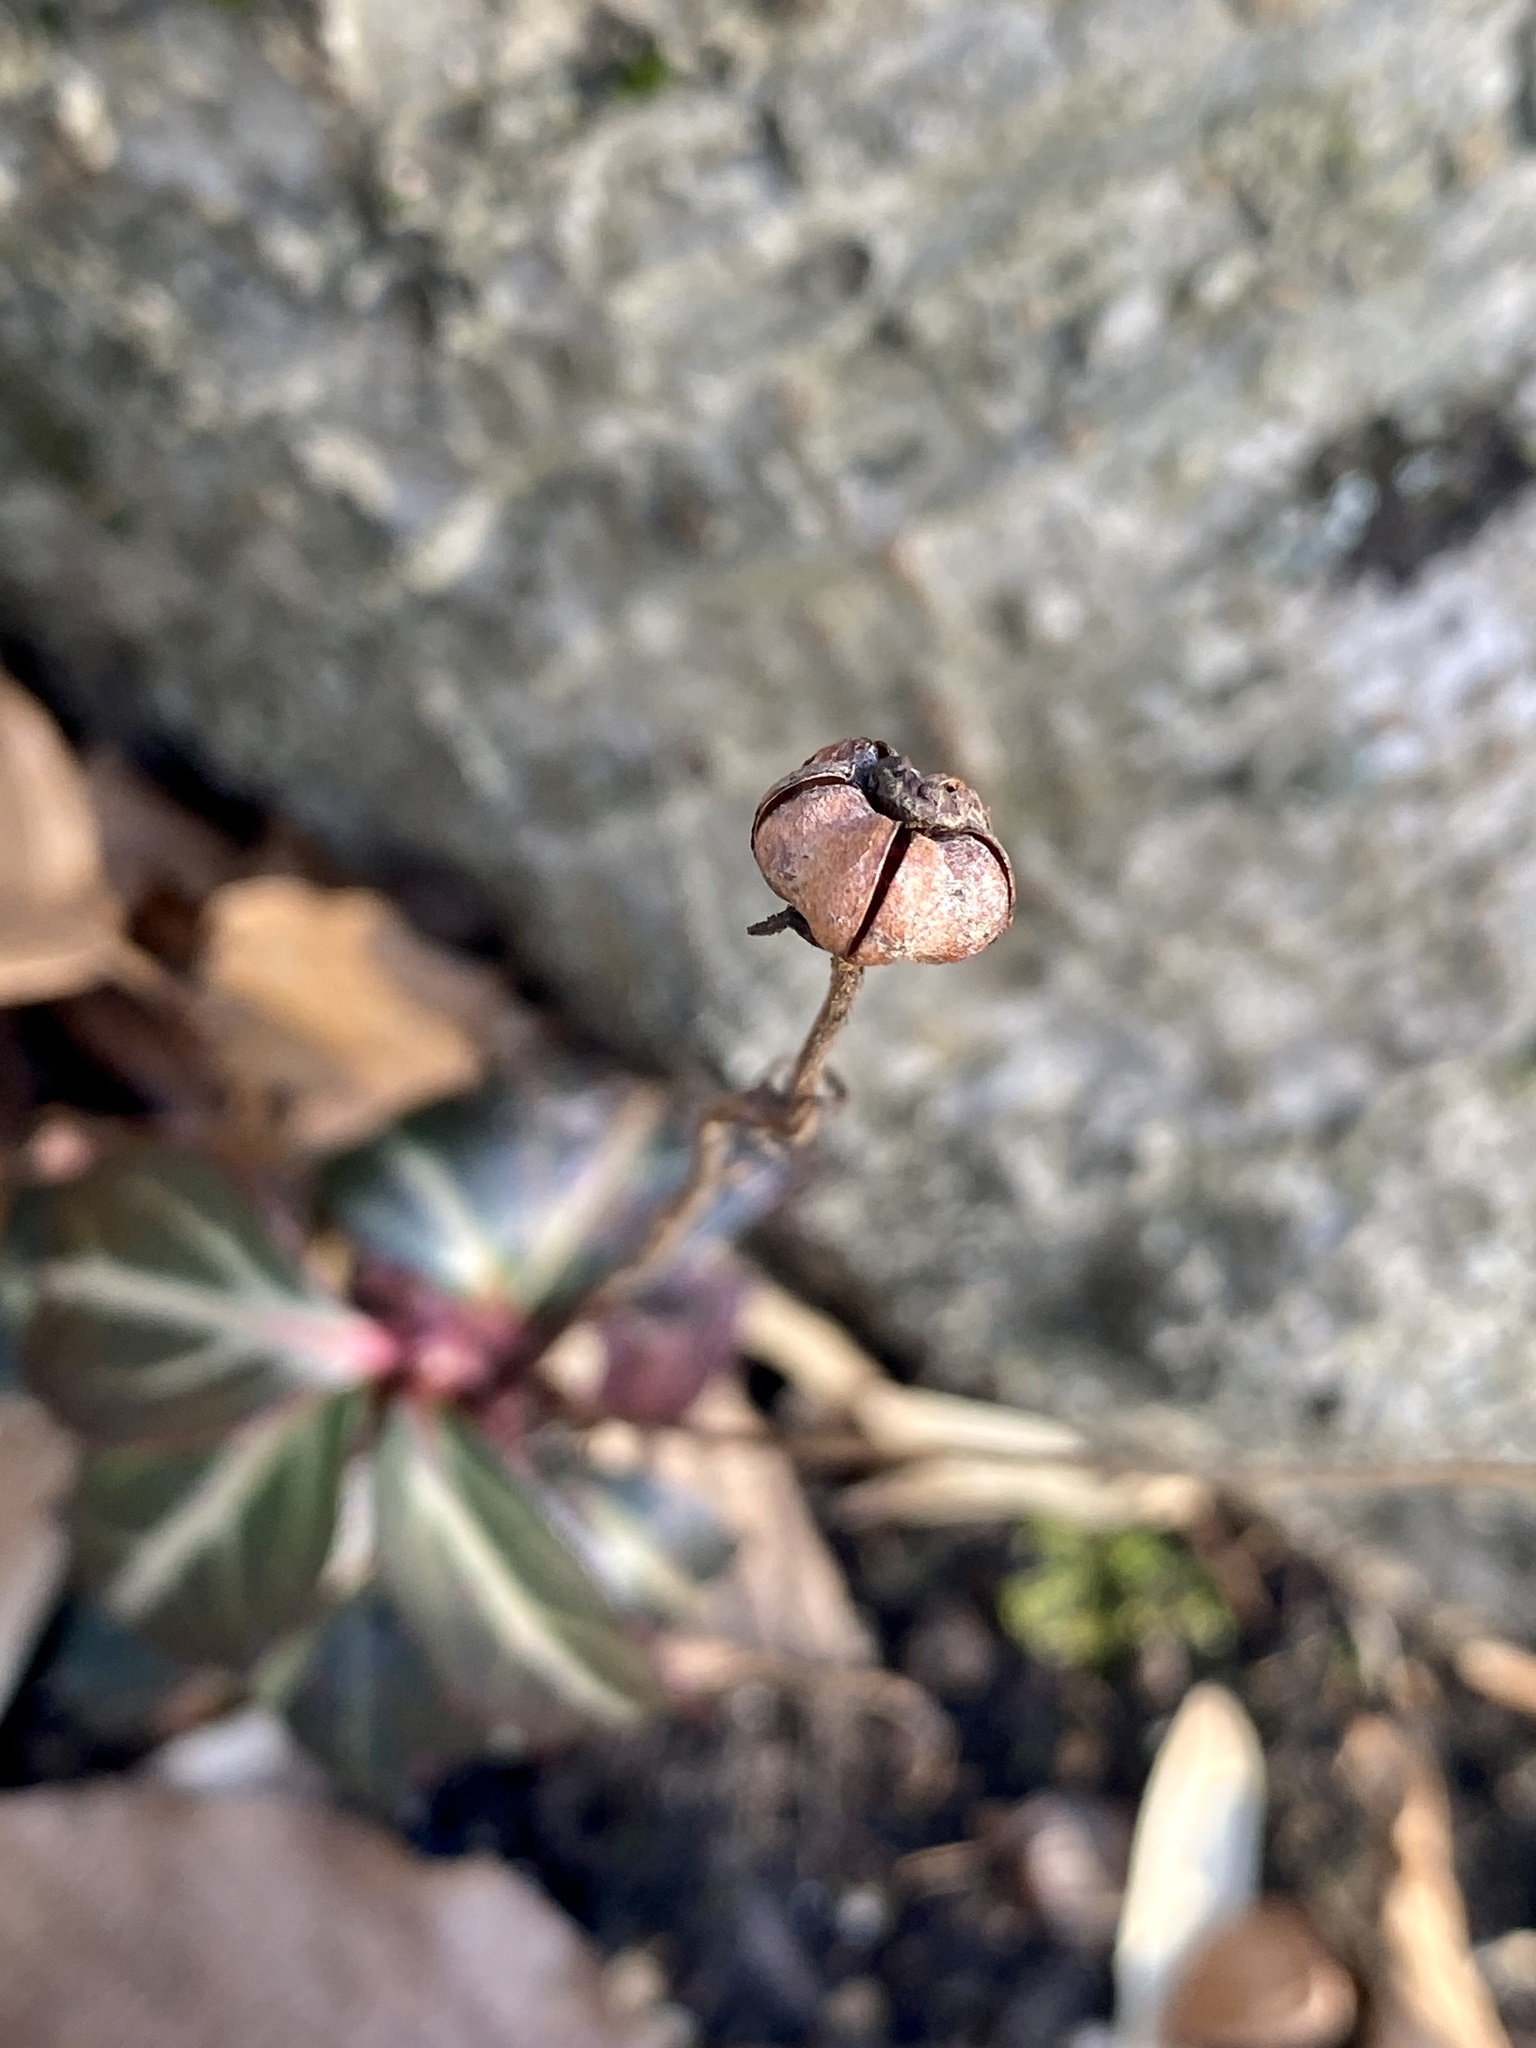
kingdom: Plantae
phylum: Tracheophyta
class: Magnoliopsida
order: Ericales
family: Ericaceae
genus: Chimaphila
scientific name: Chimaphila maculata
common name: Spotted pipsissewa
